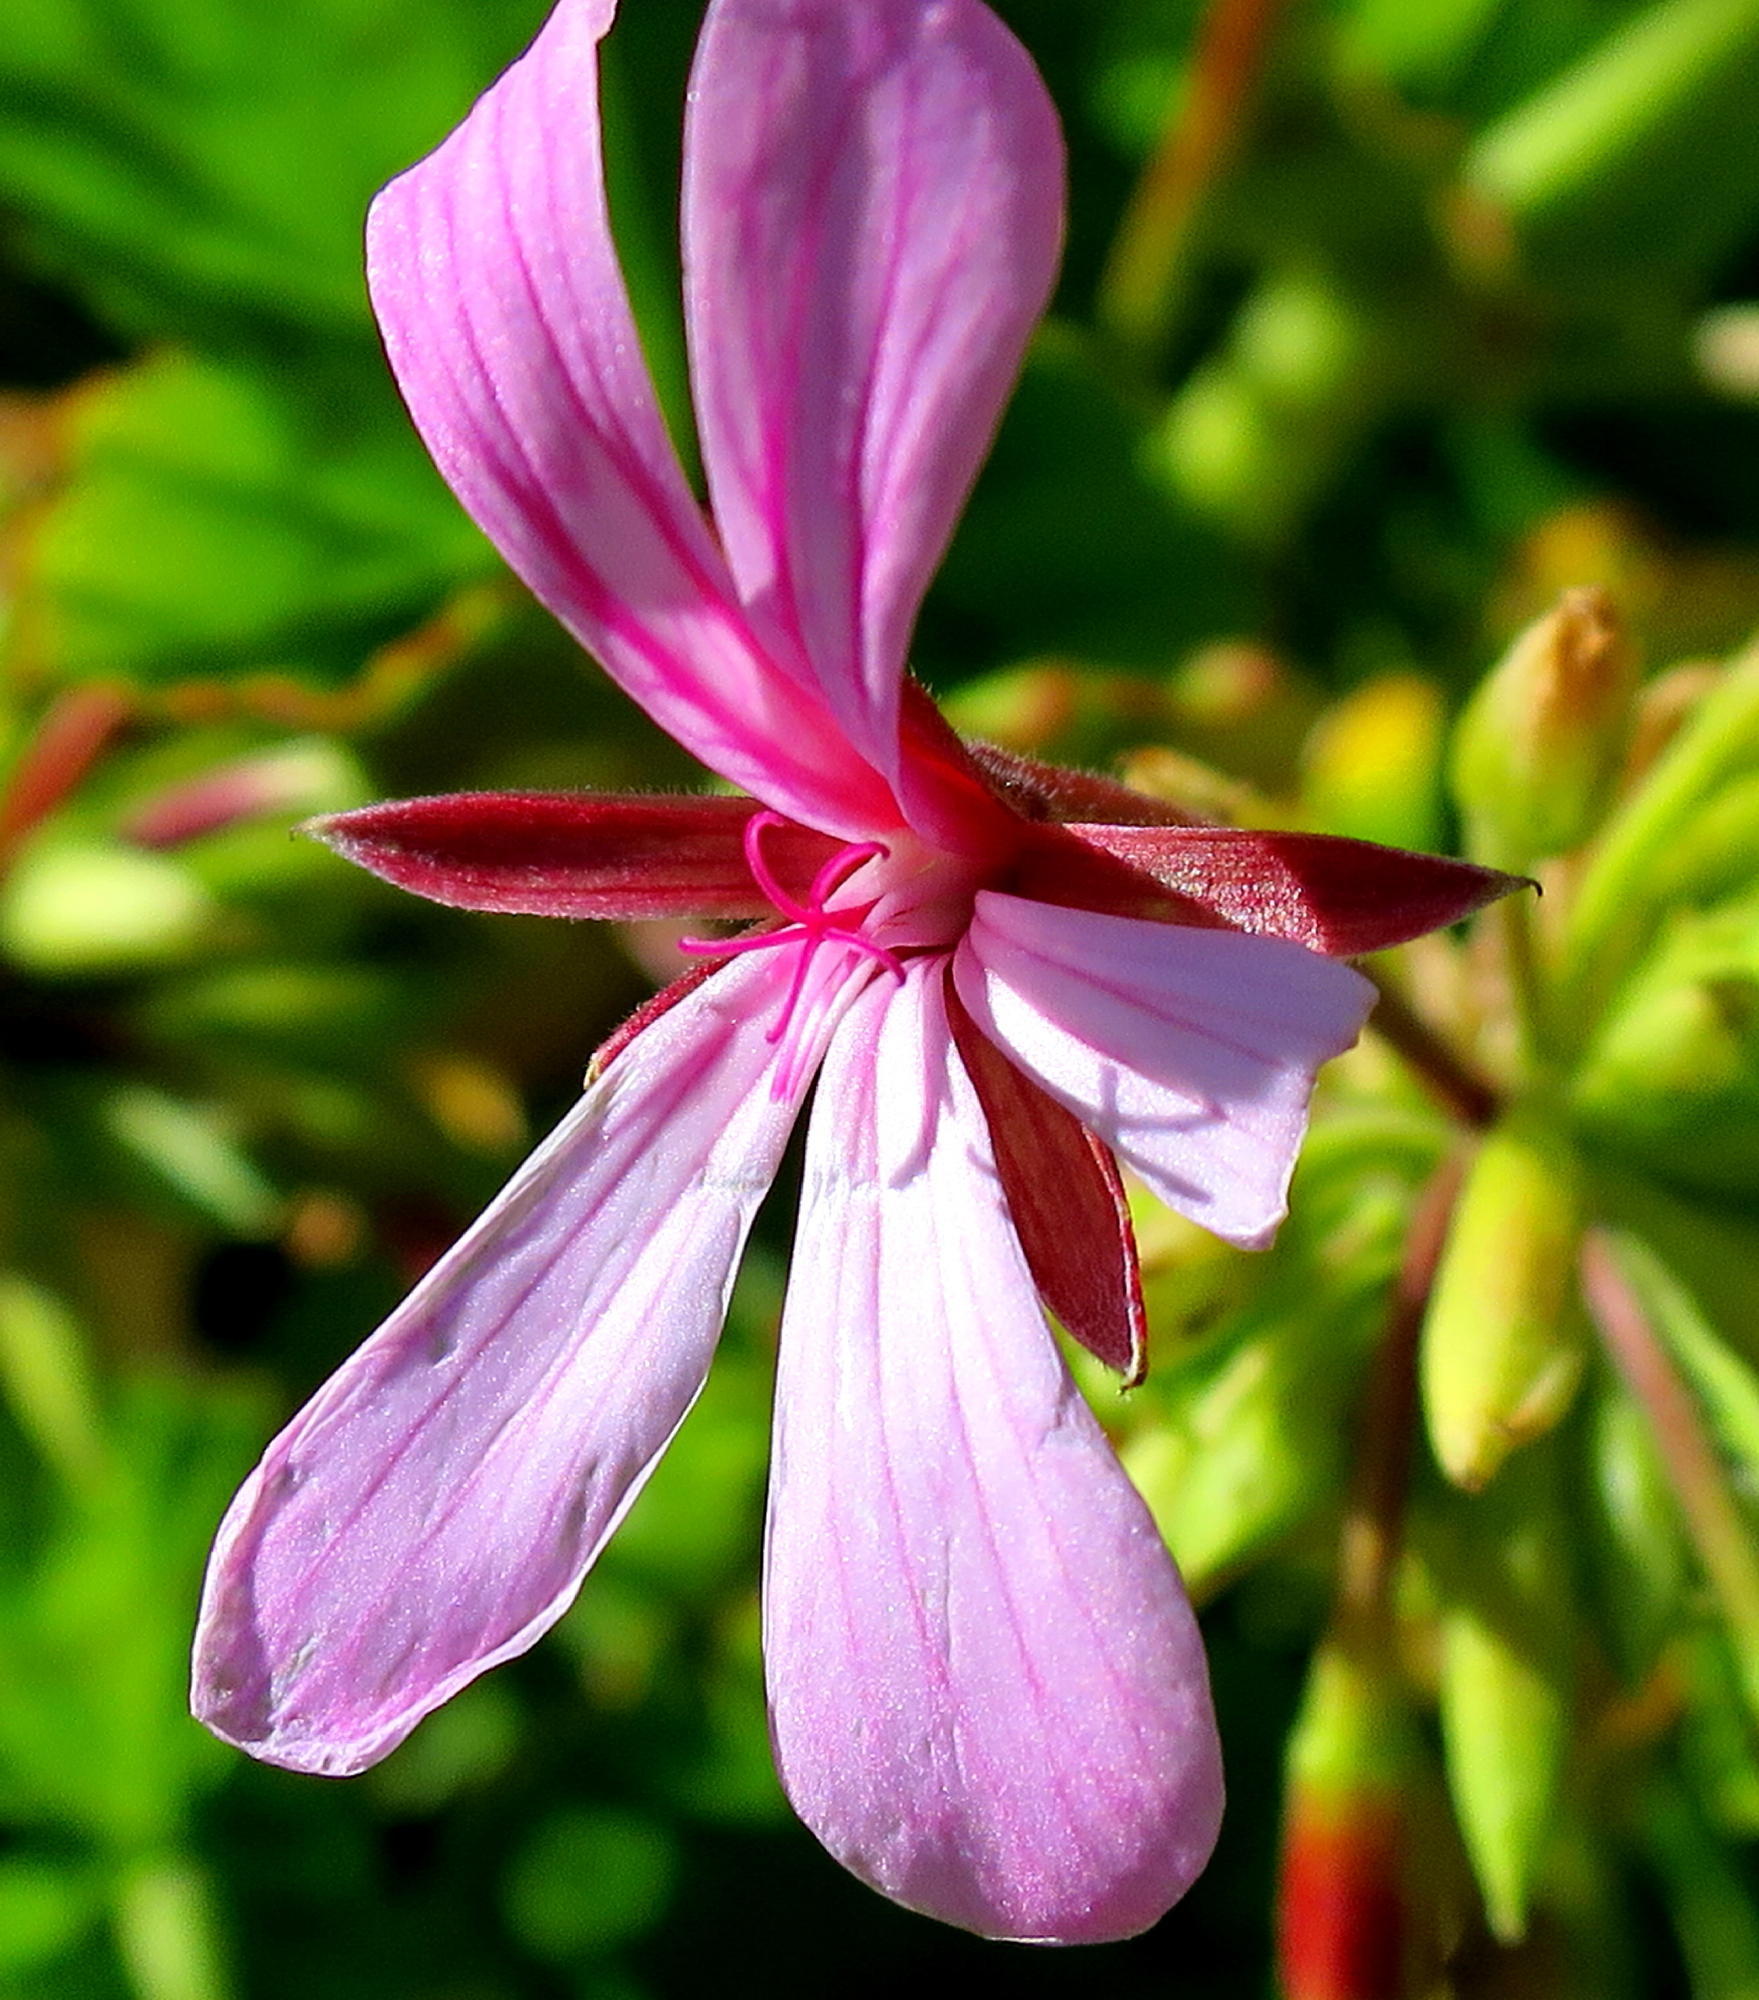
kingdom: Plantae
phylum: Tracheophyta
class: Magnoliopsida
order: Geraniales
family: Geraniaceae
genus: Pelargonium
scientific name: Pelargonium zonale
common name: Horseshoe geranium
